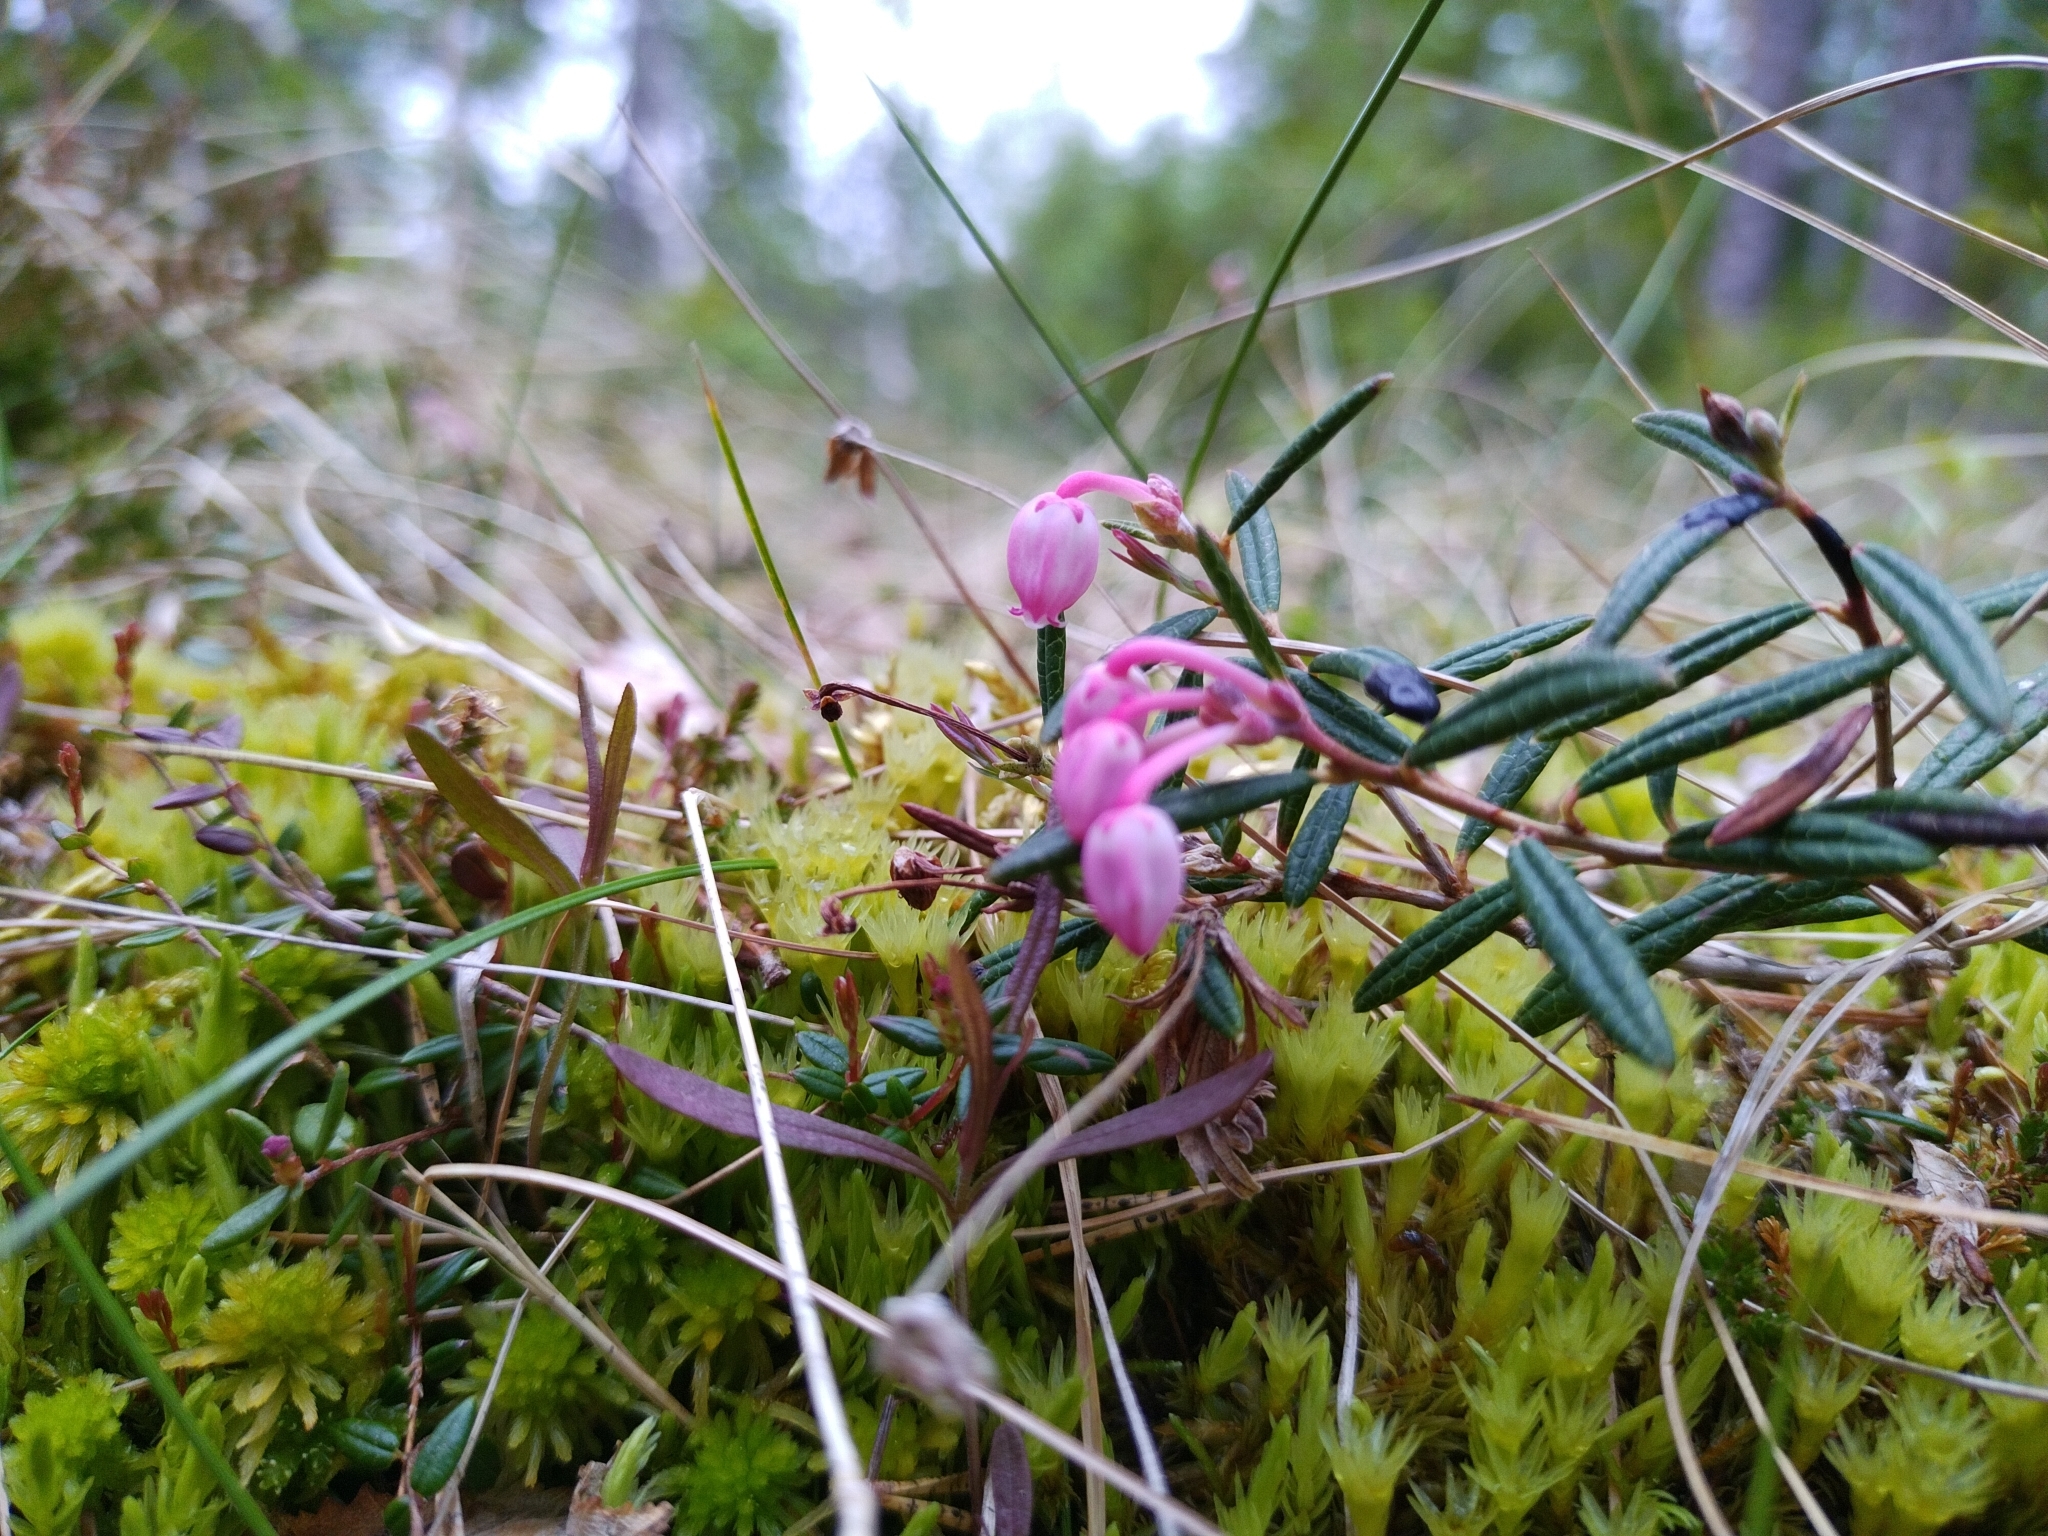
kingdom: Plantae
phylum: Tracheophyta
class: Magnoliopsida
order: Ericales
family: Ericaceae
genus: Andromeda
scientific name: Andromeda polifolia
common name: Bog-rosemary
